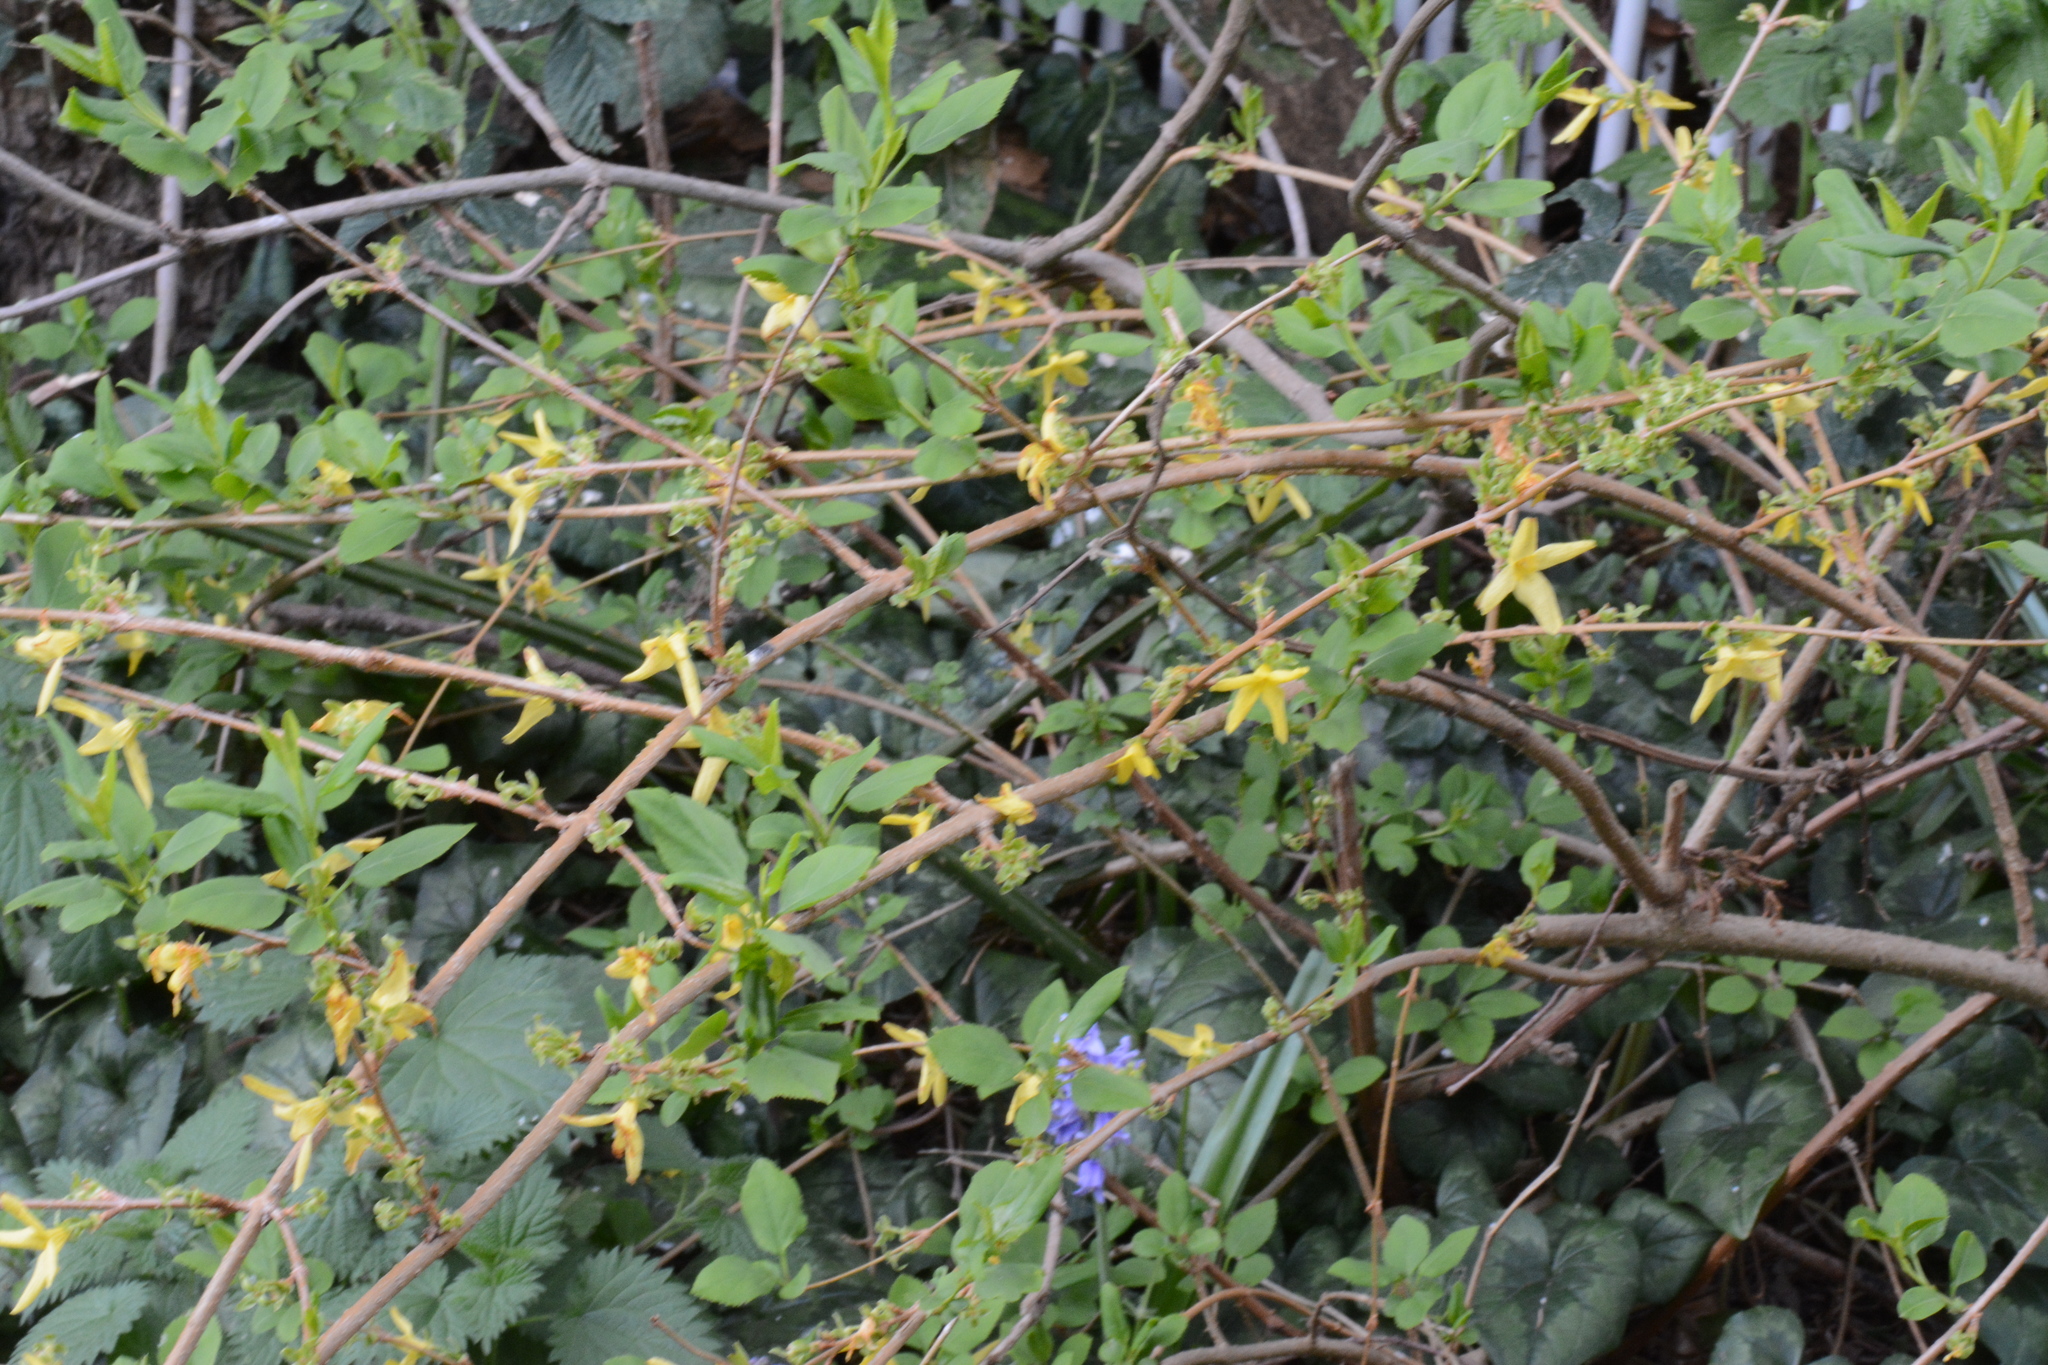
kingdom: Plantae
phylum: Tracheophyta
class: Magnoliopsida
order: Lamiales
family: Oleaceae
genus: Forsythia
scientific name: Forsythia intermedia
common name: Forsythia
